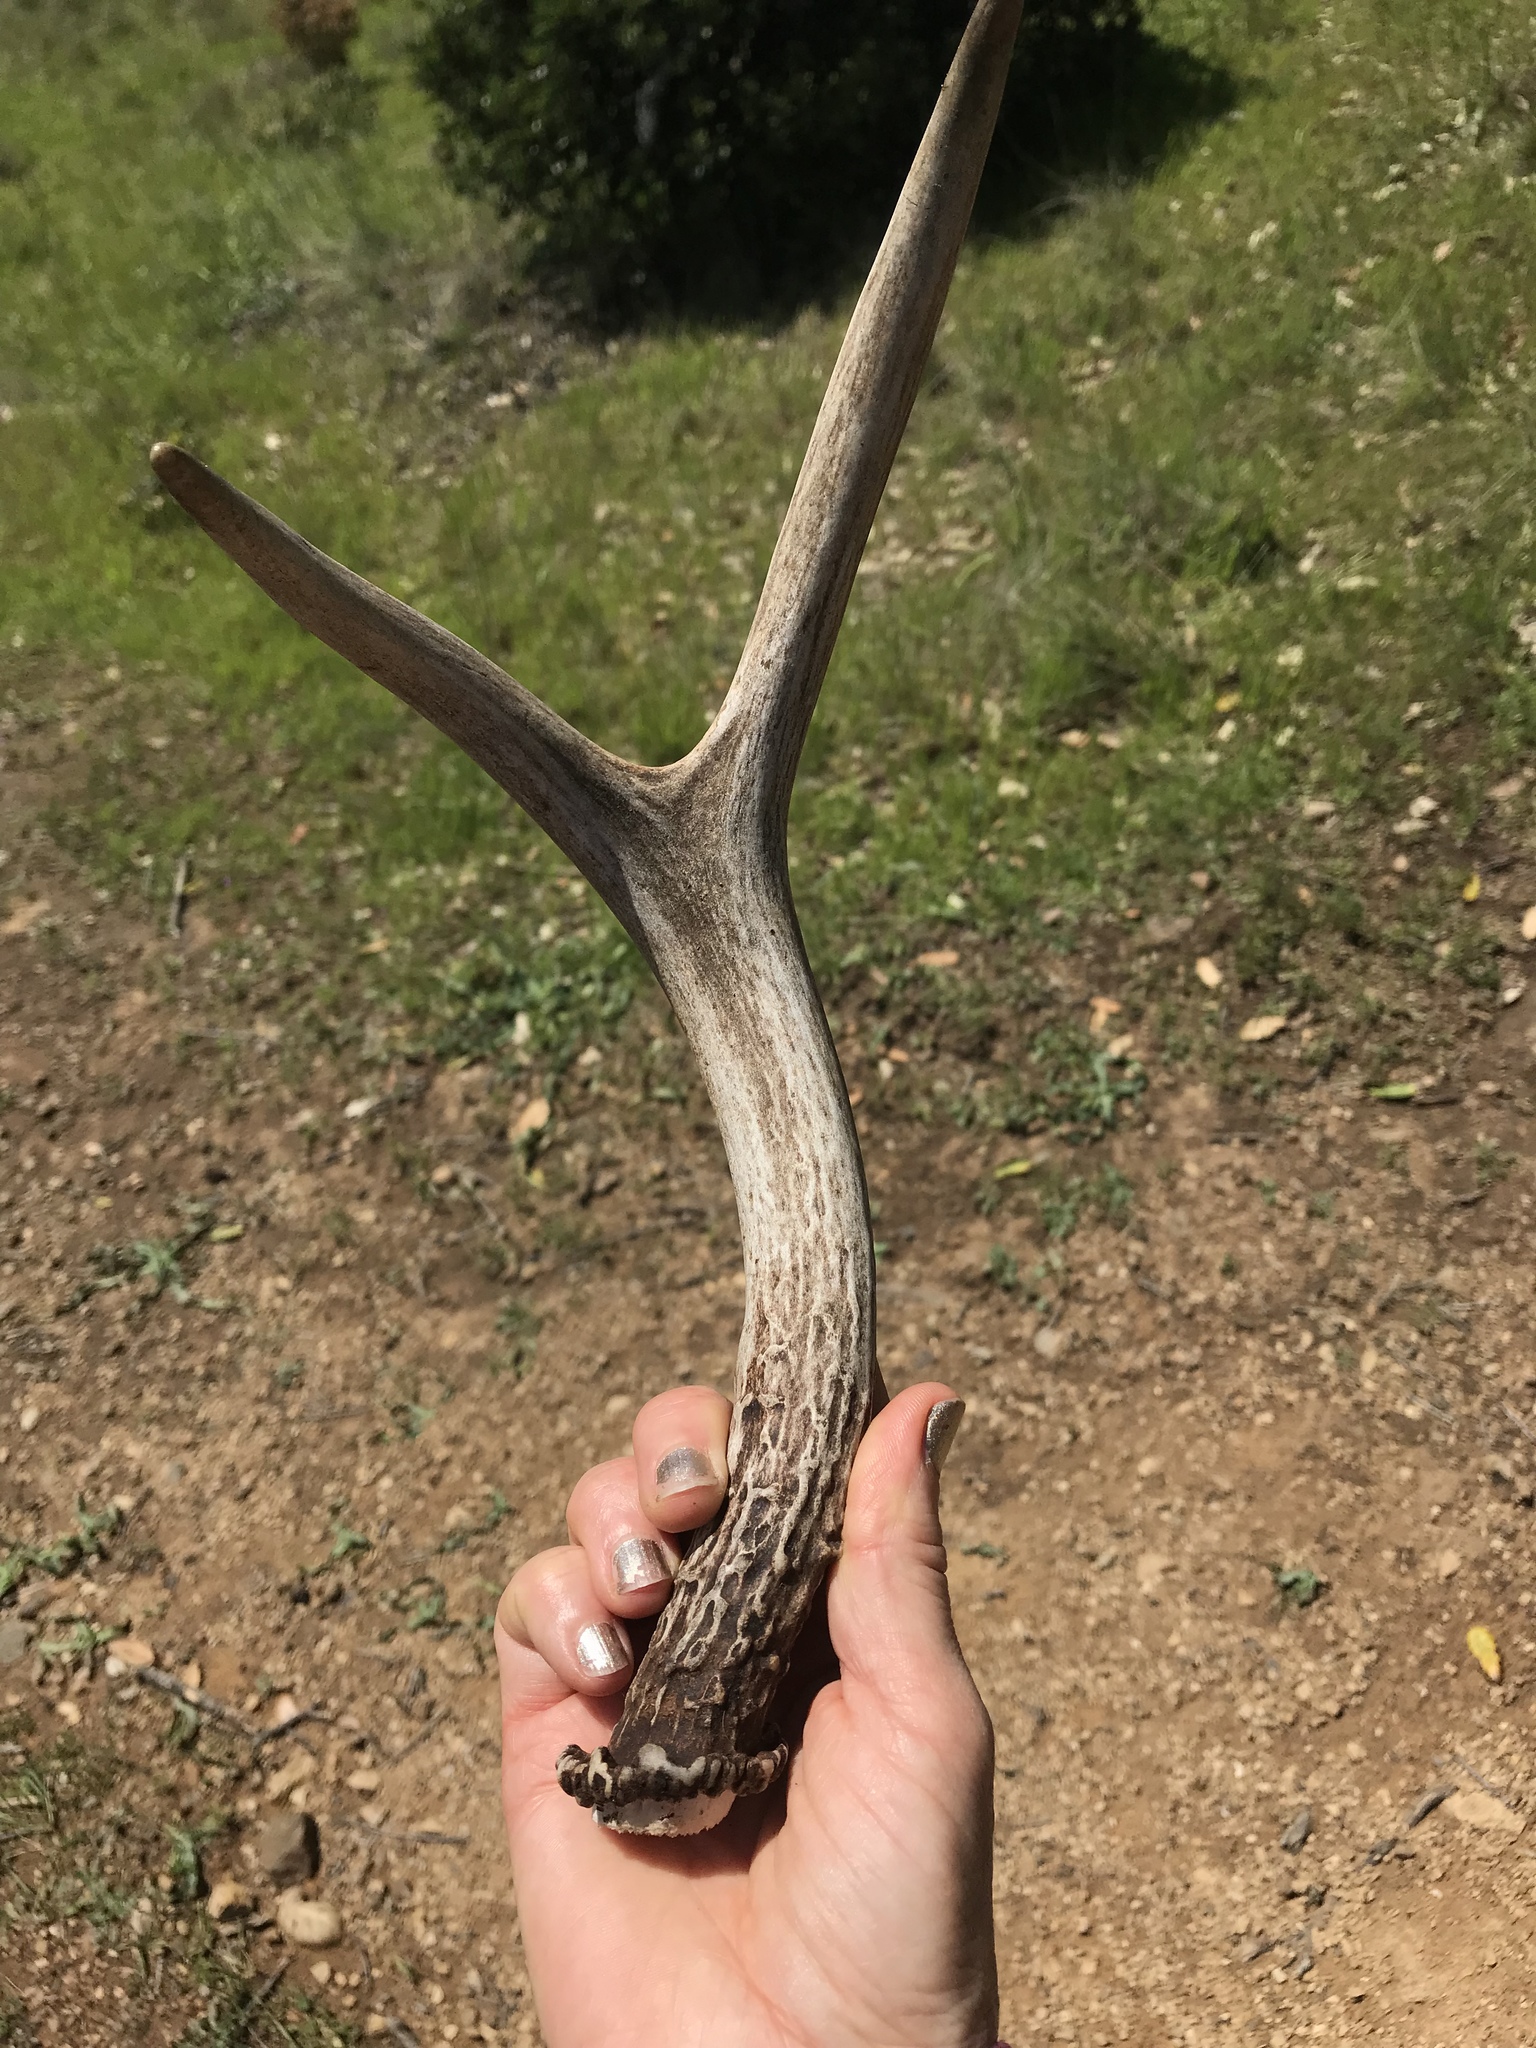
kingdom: Animalia
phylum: Chordata
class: Mammalia
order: Artiodactyla
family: Cervidae
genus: Odocoileus
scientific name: Odocoileus hemionus
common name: Mule deer
